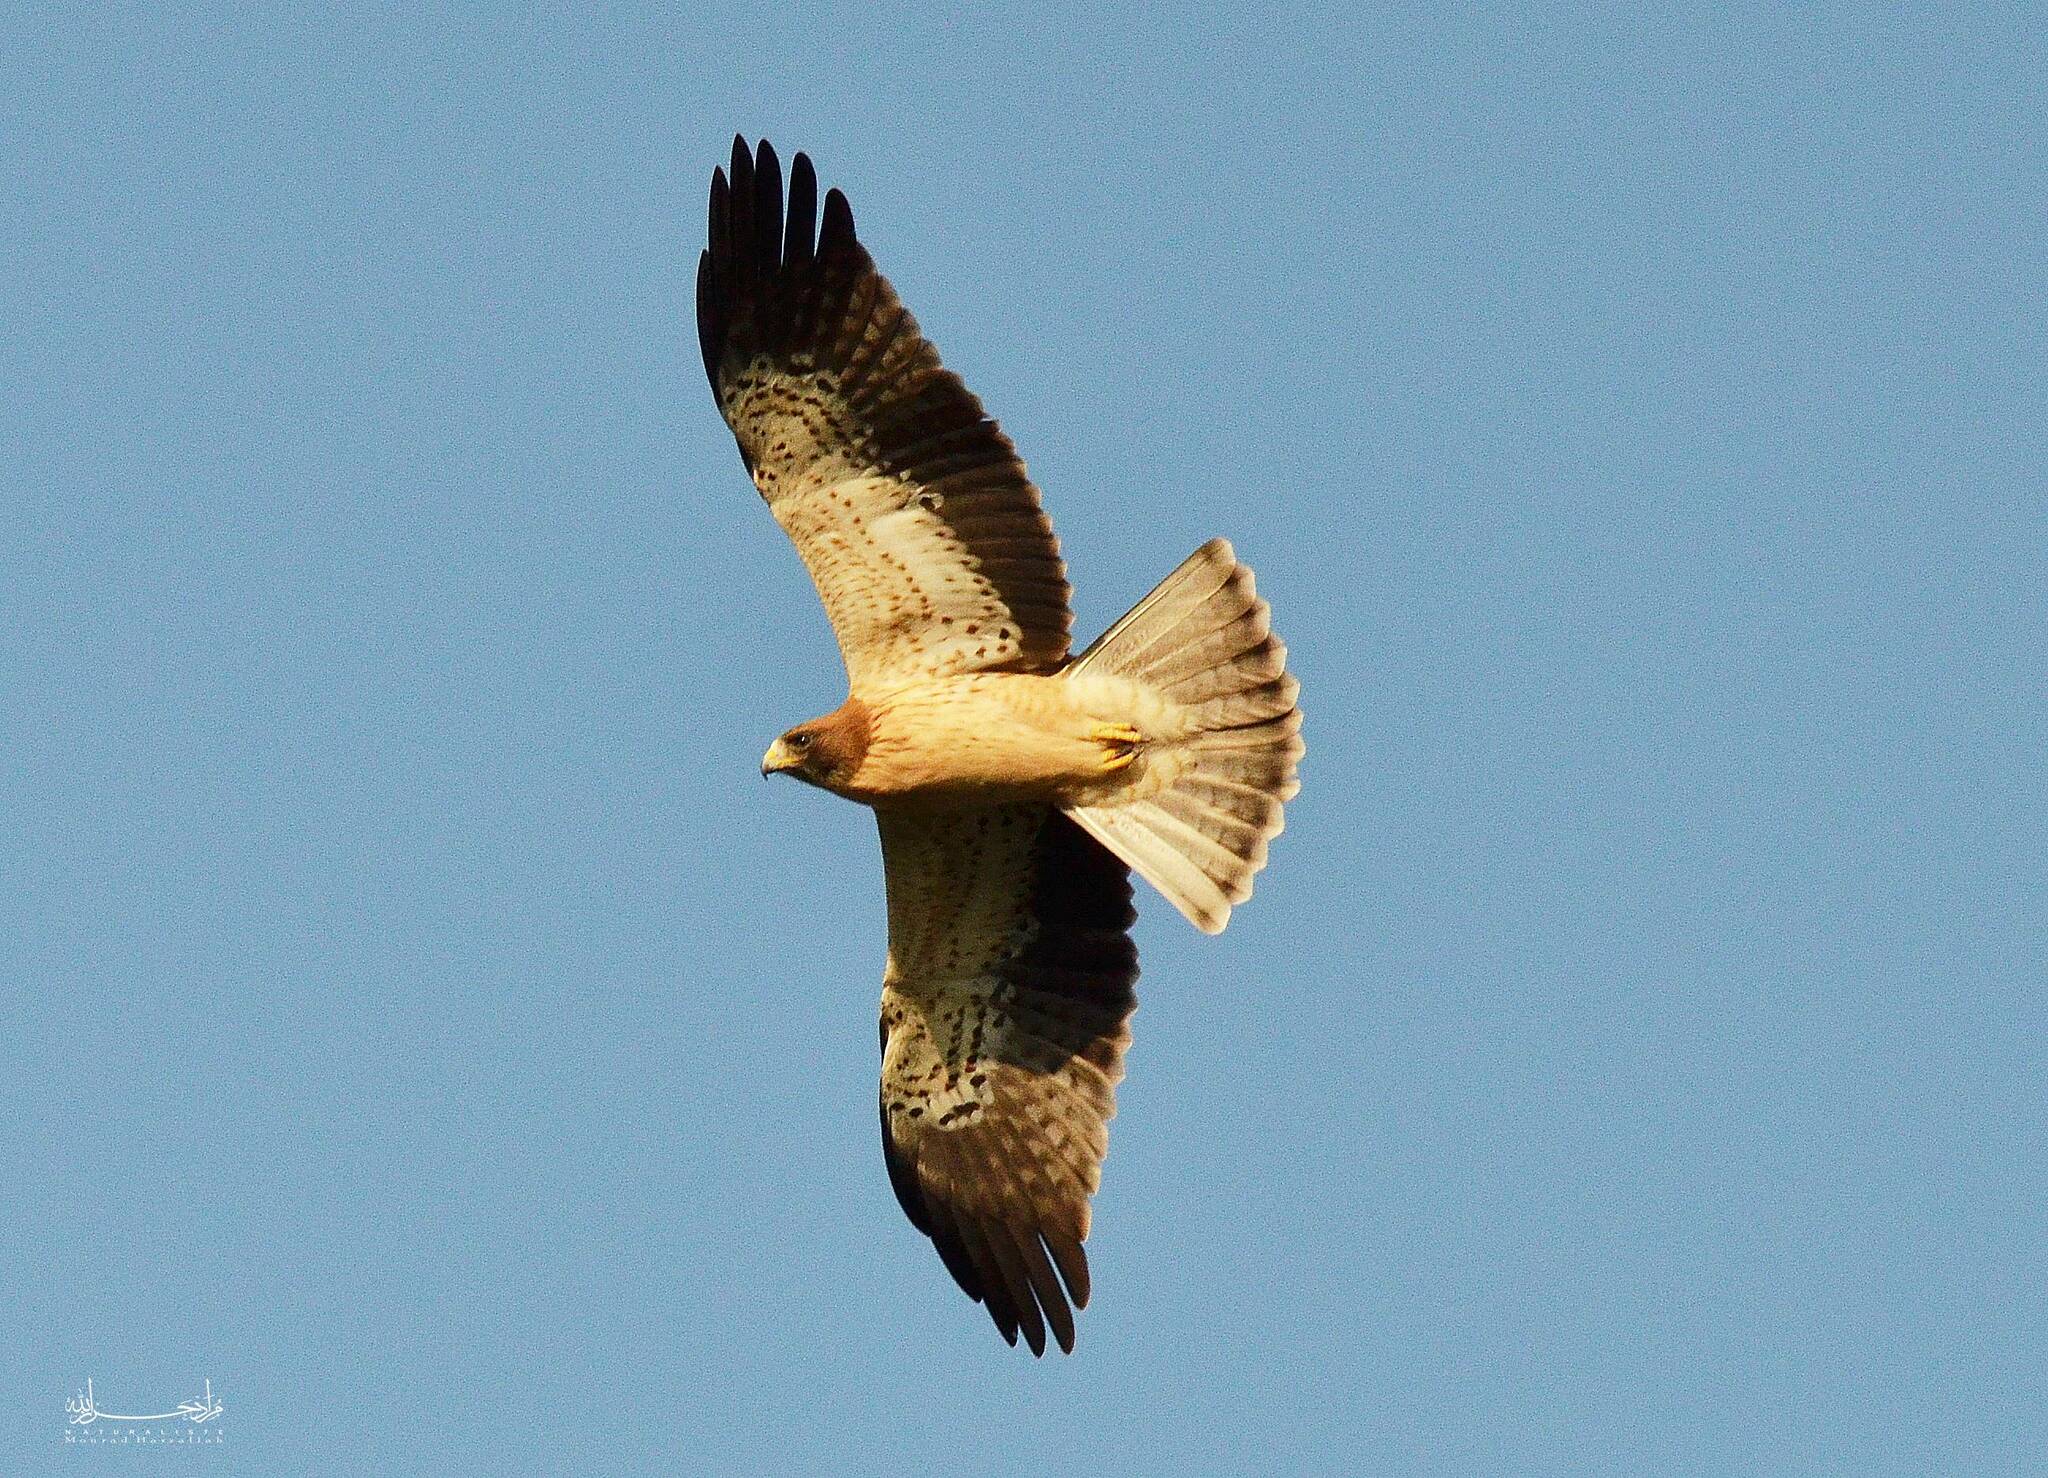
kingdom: Animalia
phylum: Chordata
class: Aves
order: Accipitriformes
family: Accipitridae
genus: Hieraaetus
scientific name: Hieraaetus pennatus
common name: Booted eagle
